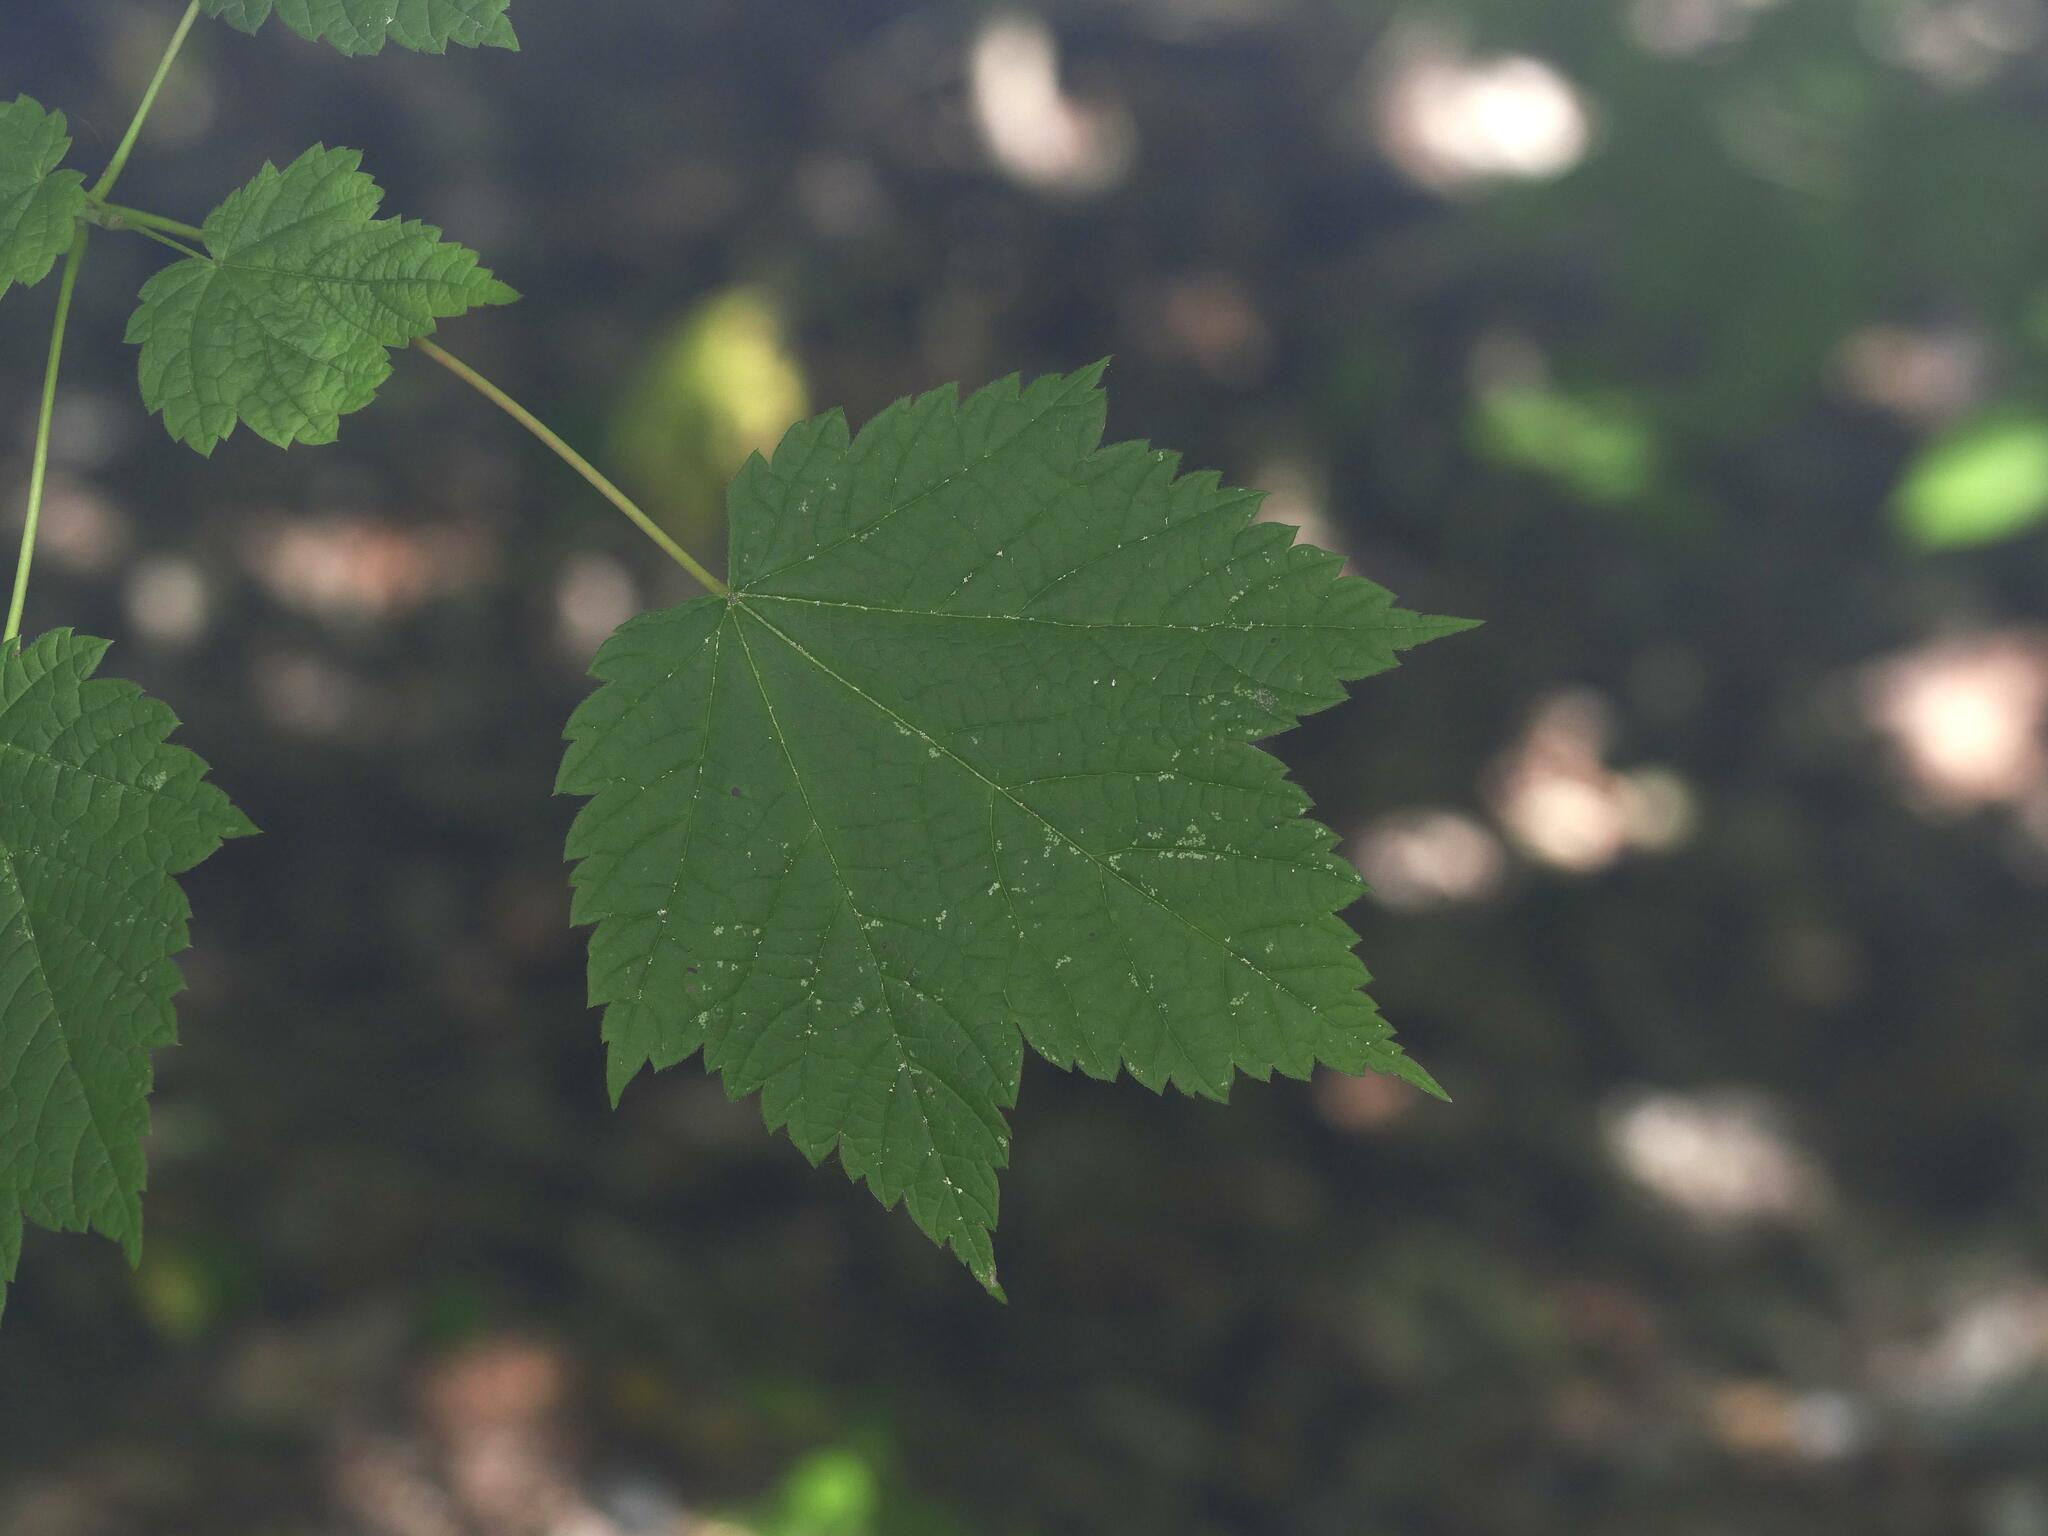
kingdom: Plantae
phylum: Tracheophyta
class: Magnoliopsida
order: Sapindales
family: Sapindaceae
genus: Acer
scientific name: Acer spicatum
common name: Mountain maple
